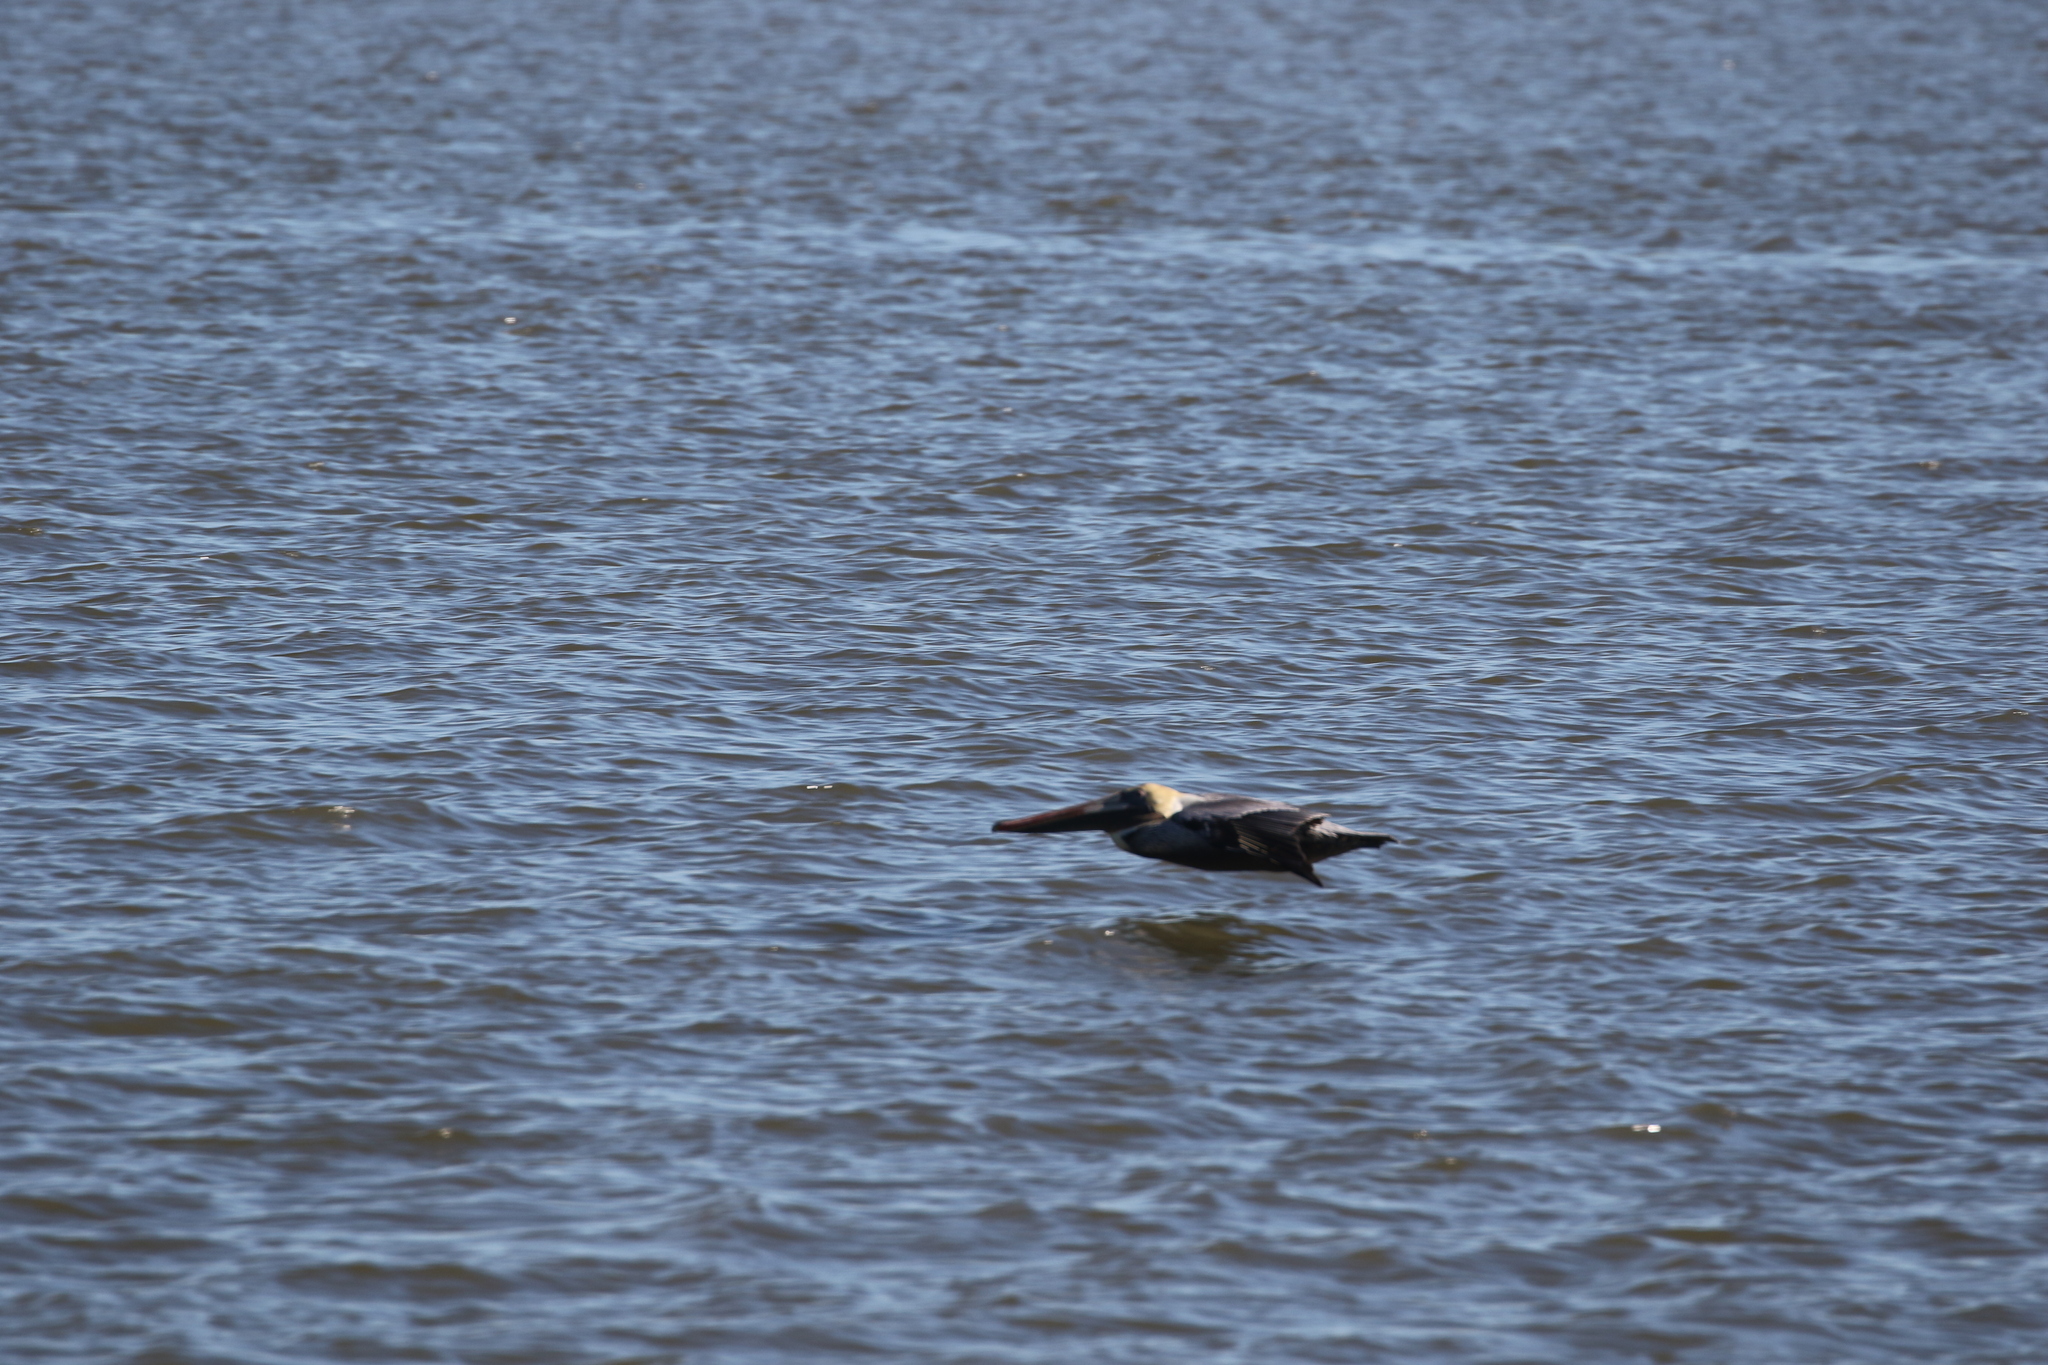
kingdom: Animalia
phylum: Chordata
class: Aves
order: Pelecaniformes
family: Pelecanidae
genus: Pelecanus
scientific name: Pelecanus occidentalis
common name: Brown pelican
